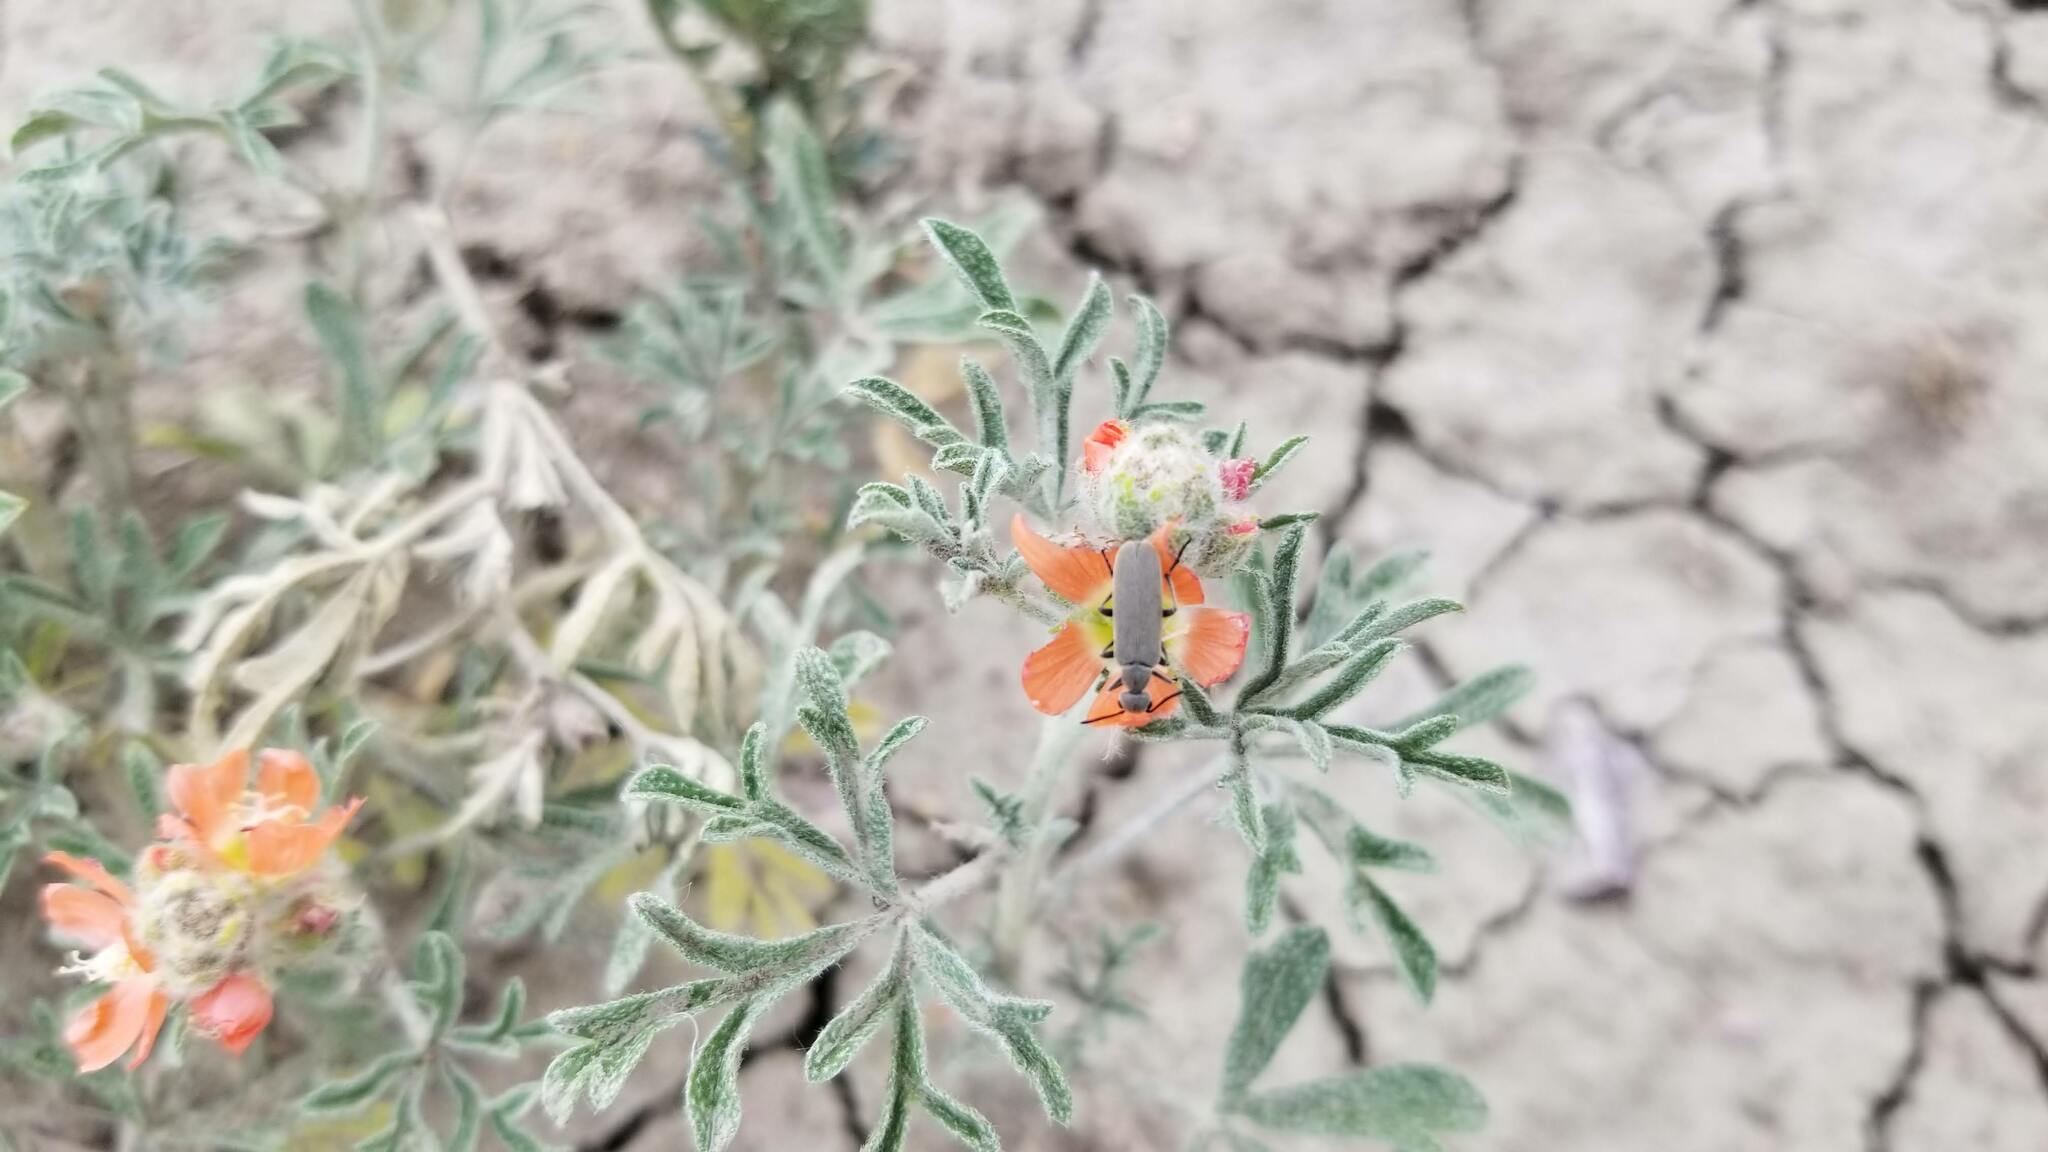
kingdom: Plantae
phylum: Tracheophyta
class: Magnoliopsida
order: Malvales
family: Malvaceae
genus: Sphaeralcea
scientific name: Sphaeralcea coccinea
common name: Moss-rose
